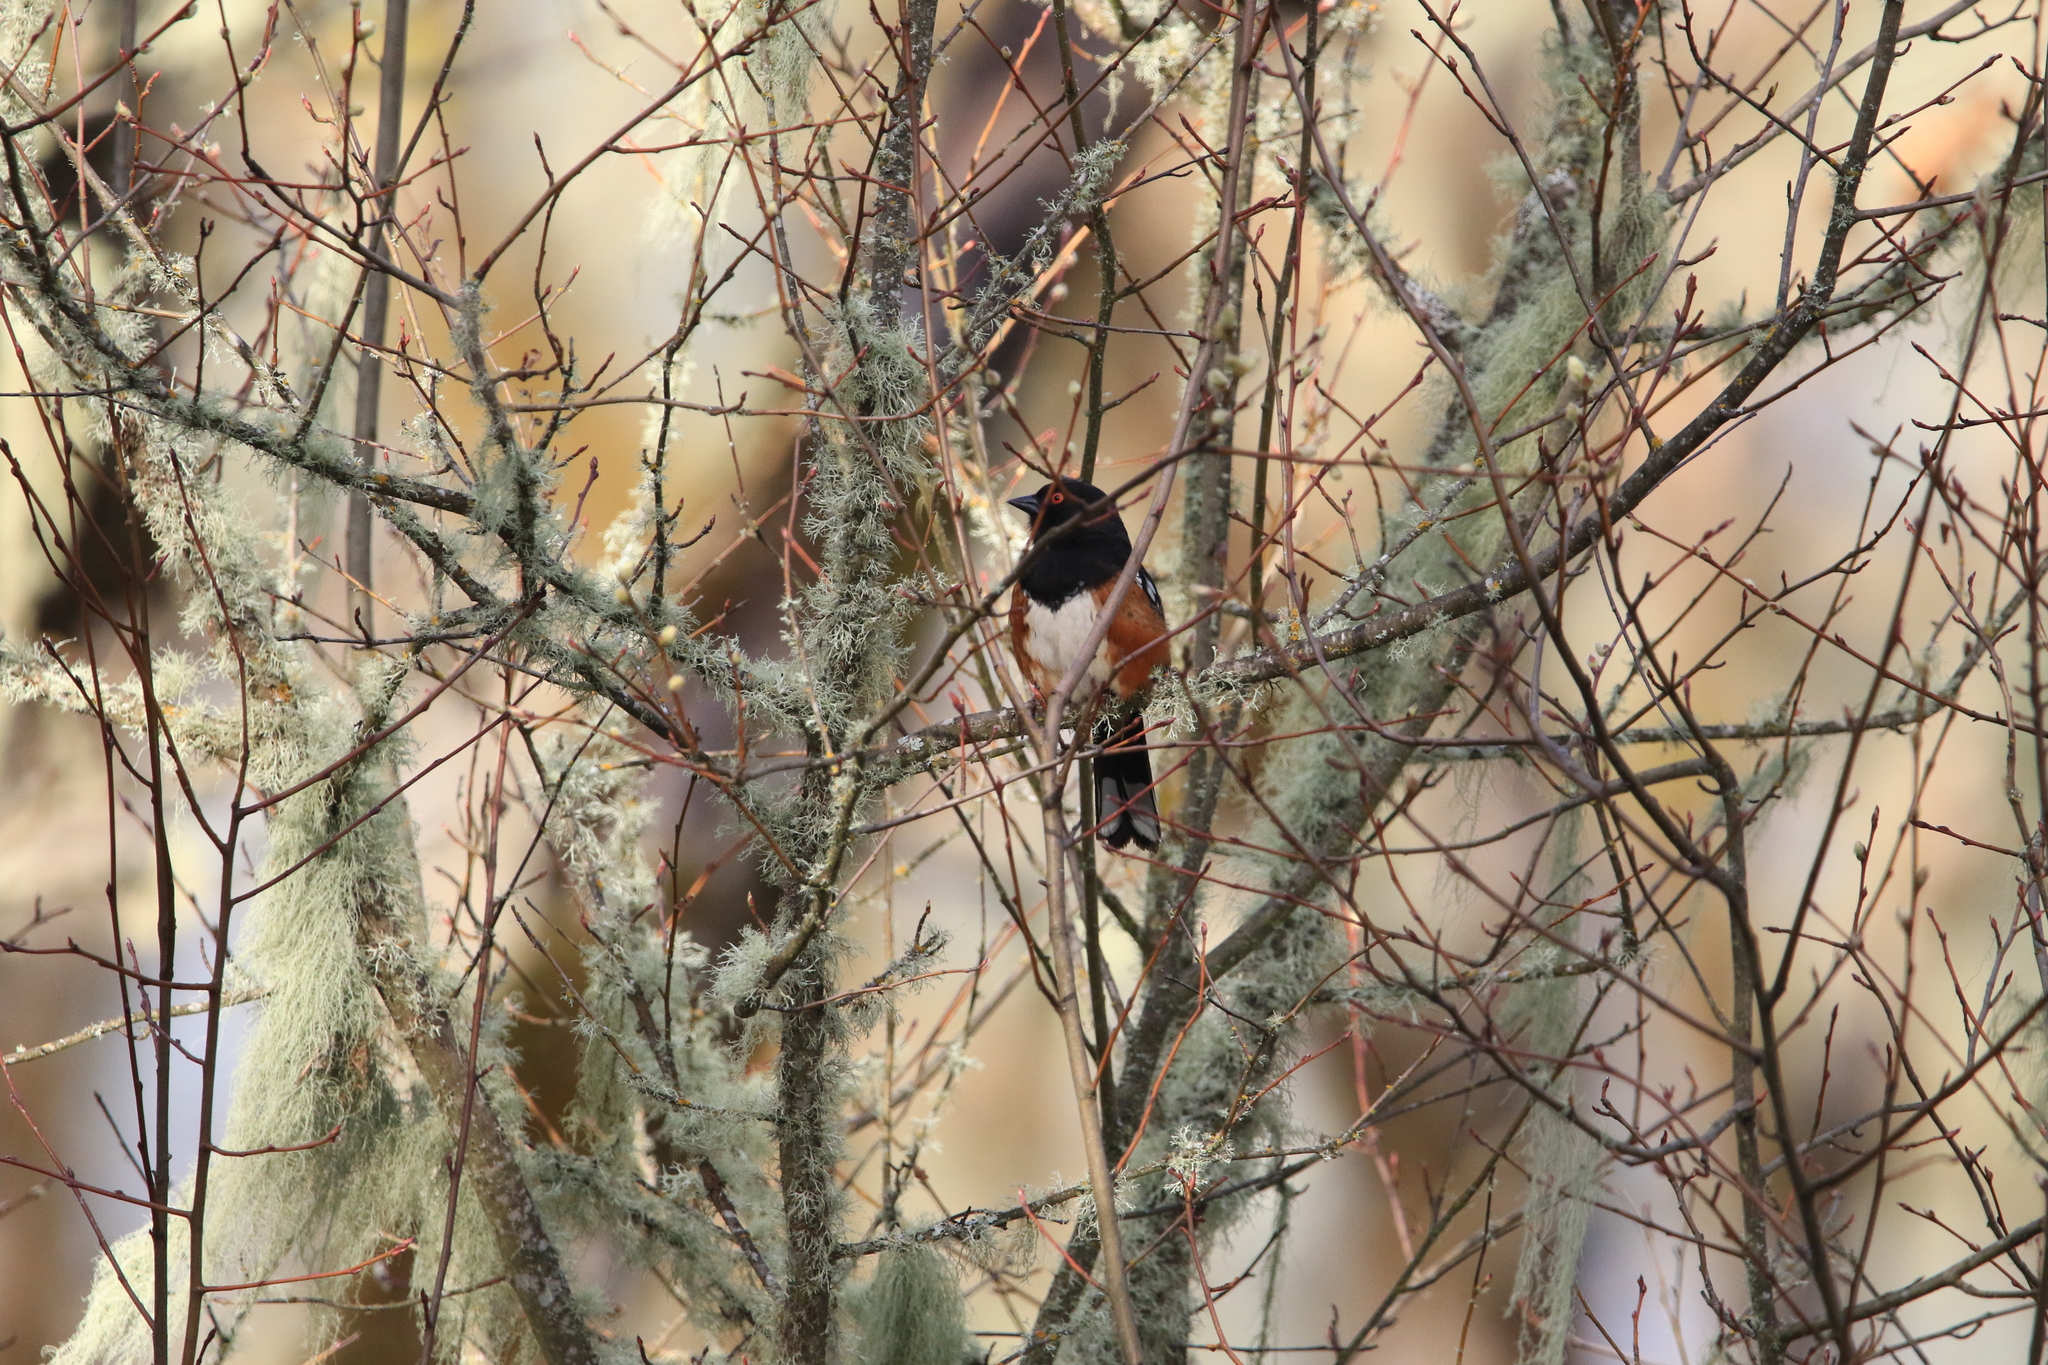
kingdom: Animalia
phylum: Chordata
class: Aves
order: Passeriformes
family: Passerellidae
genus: Pipilo
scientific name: Pipilo maculatus
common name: Spotted towhee
